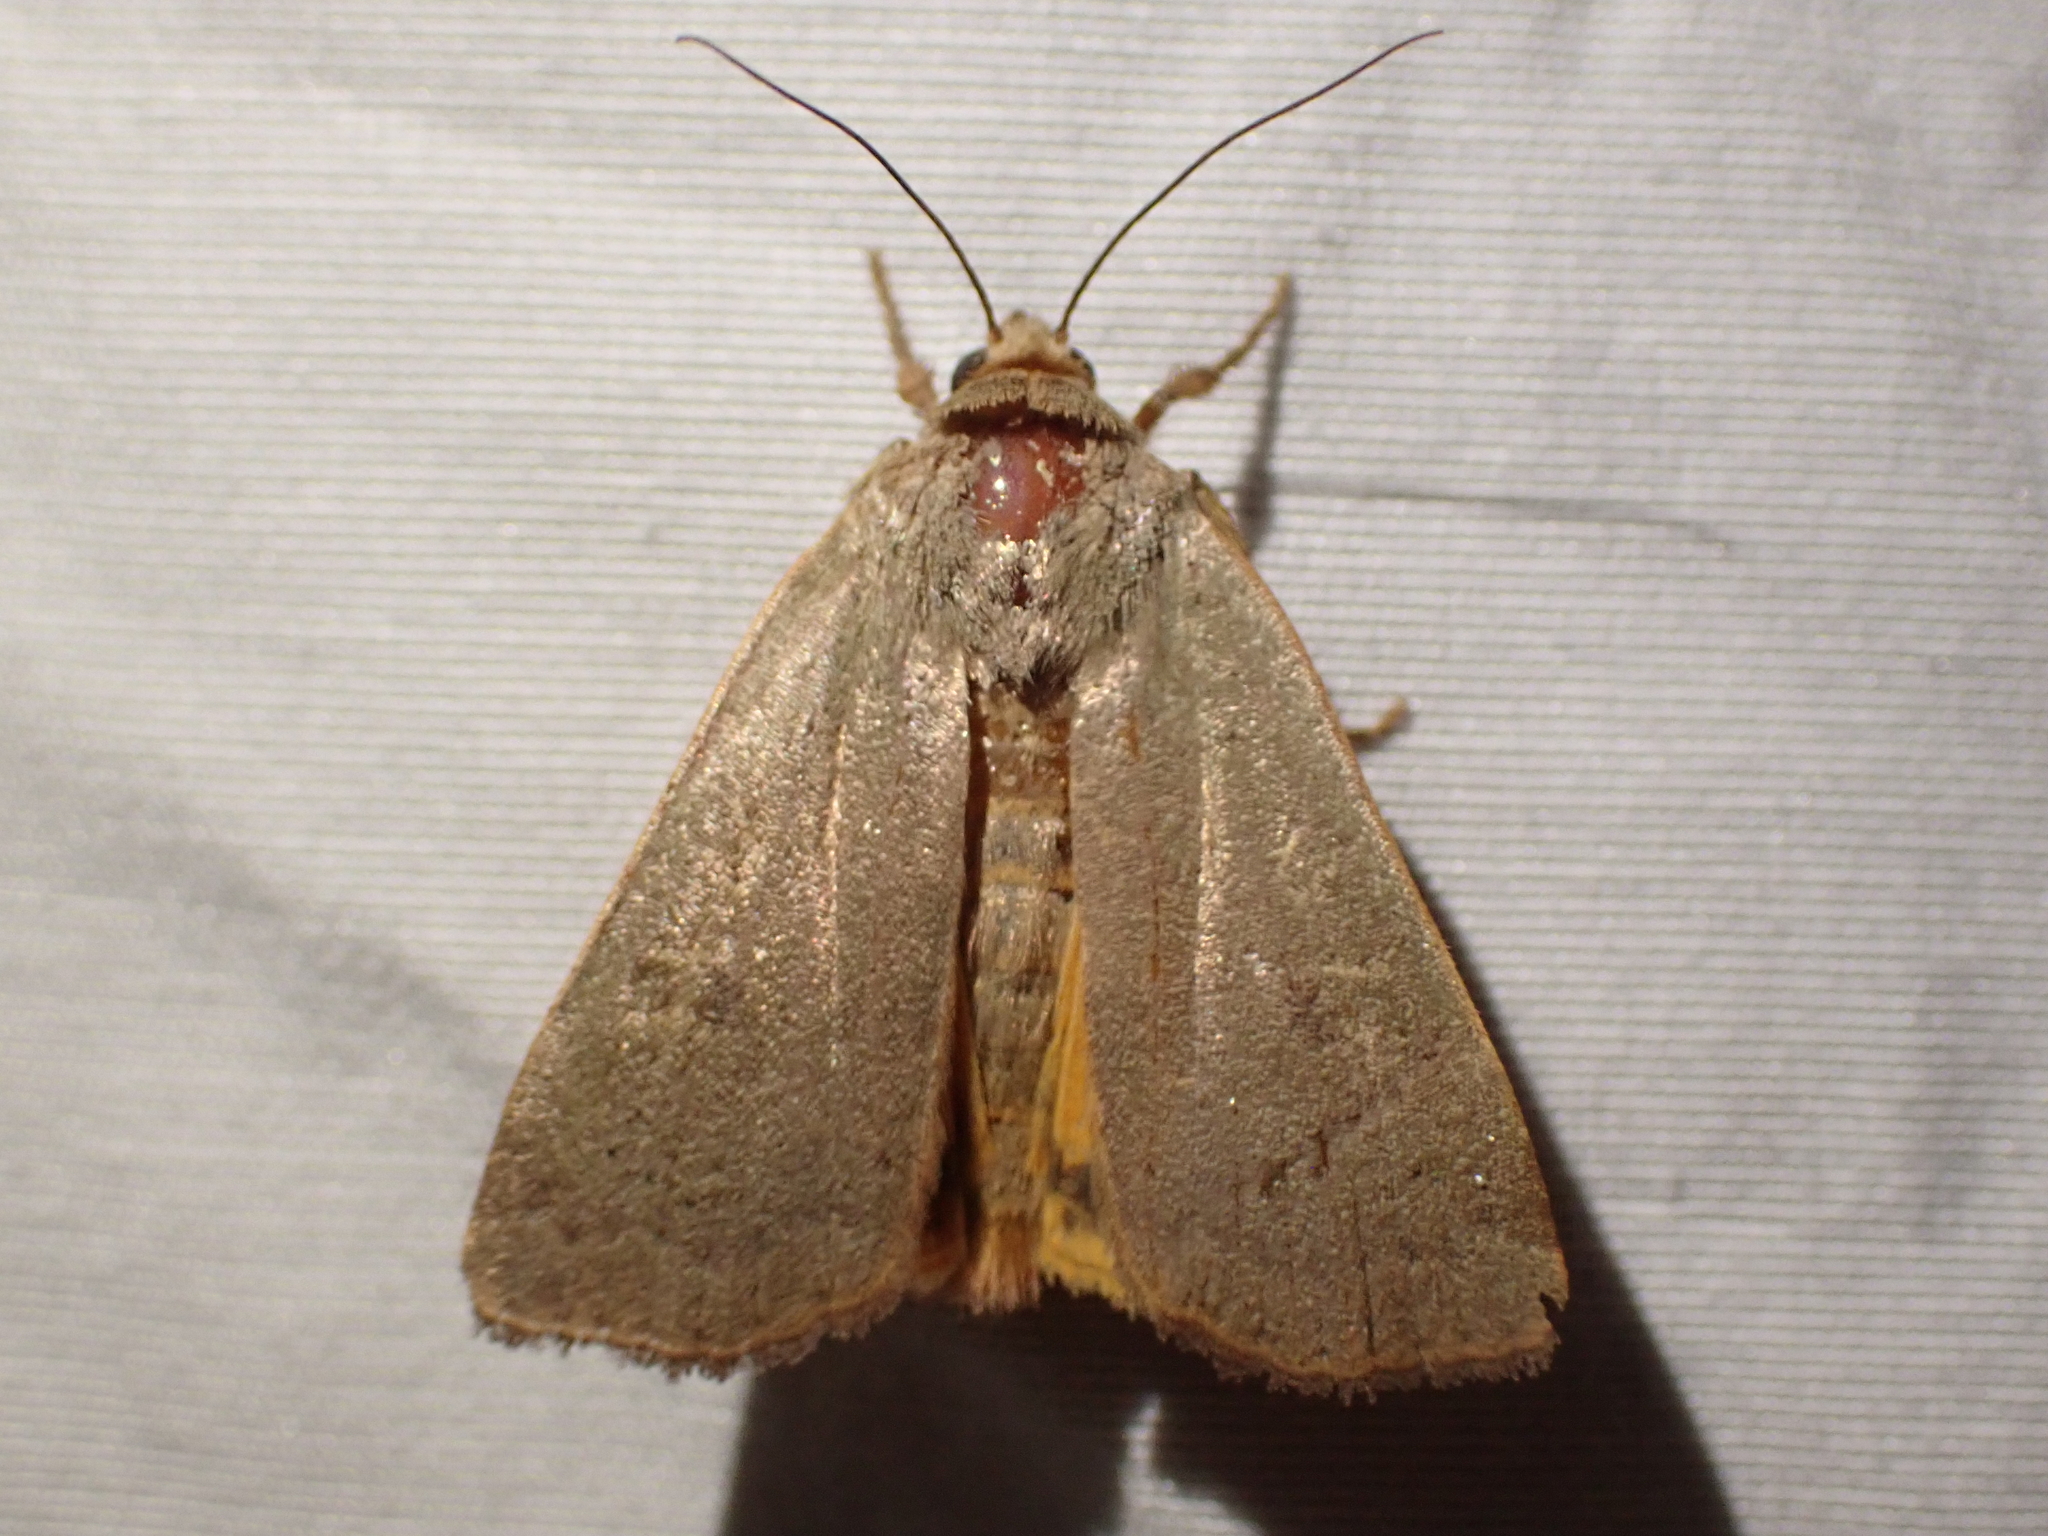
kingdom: Animalia
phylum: Arthropoda
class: Insecta
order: Lepidoptera
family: Noctuidae
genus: Noctua
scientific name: Noctua comes
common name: Lesser yellow underwing
